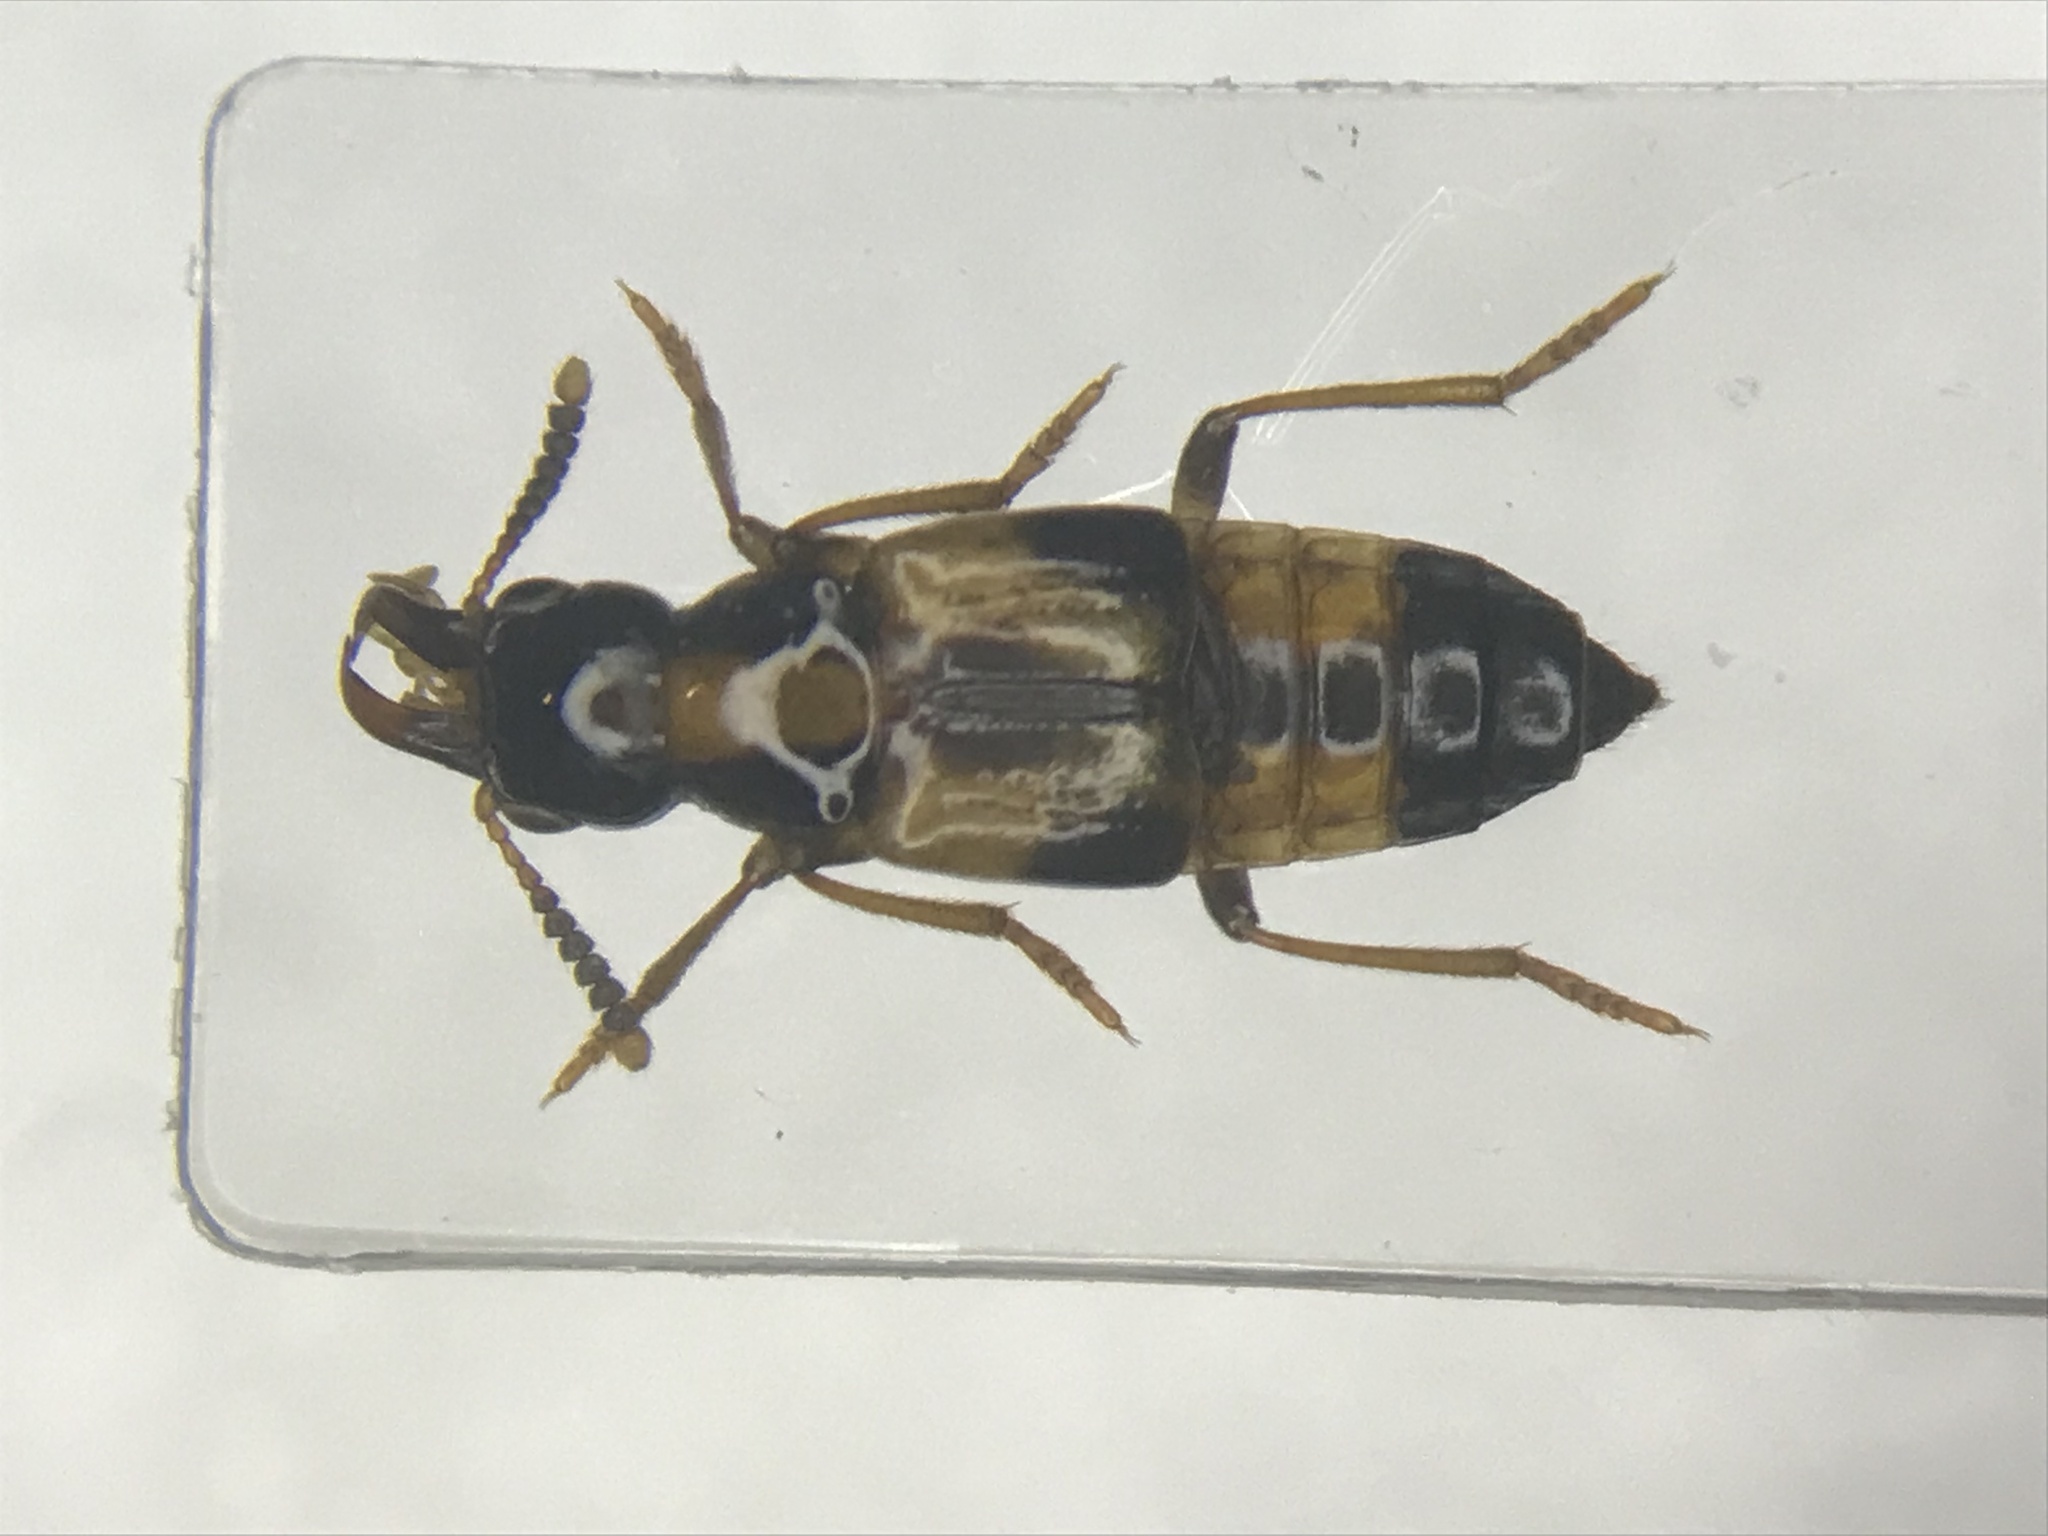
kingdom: Animalia
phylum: Arthropoda
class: Insecta
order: Coleoptera
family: Staphylinidae
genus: Pseudoxyporus
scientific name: Pseudoxyporus quinquemaculatus
